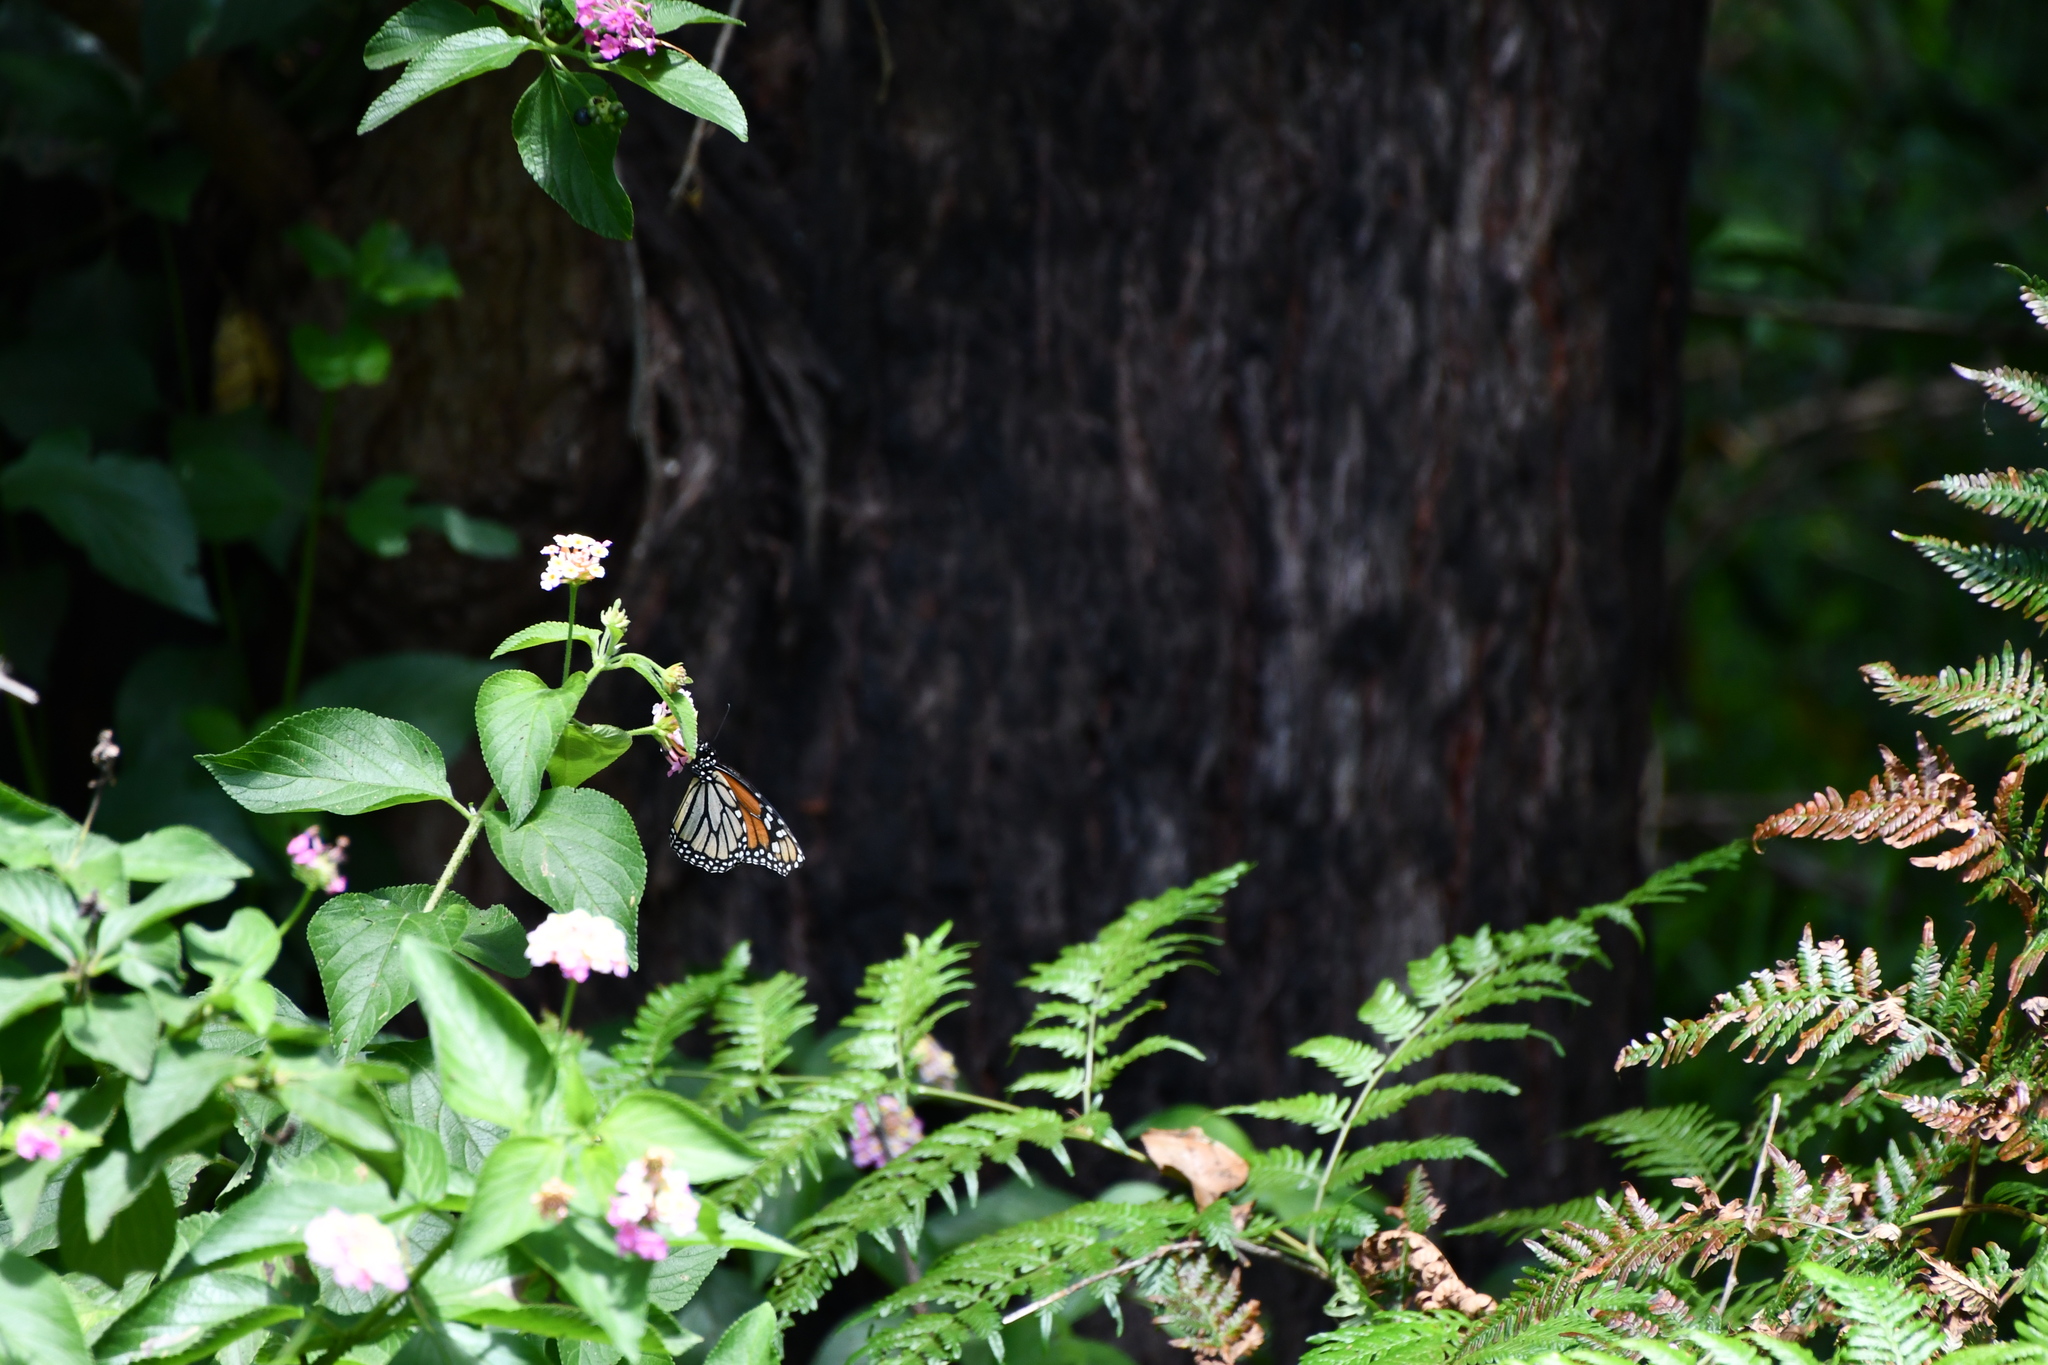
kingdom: Animalia
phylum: Arthropoda
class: Insecta
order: Lepidoptera
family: Nymphalidae
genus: Danaus
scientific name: Danaus plexippus
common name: Monarch
